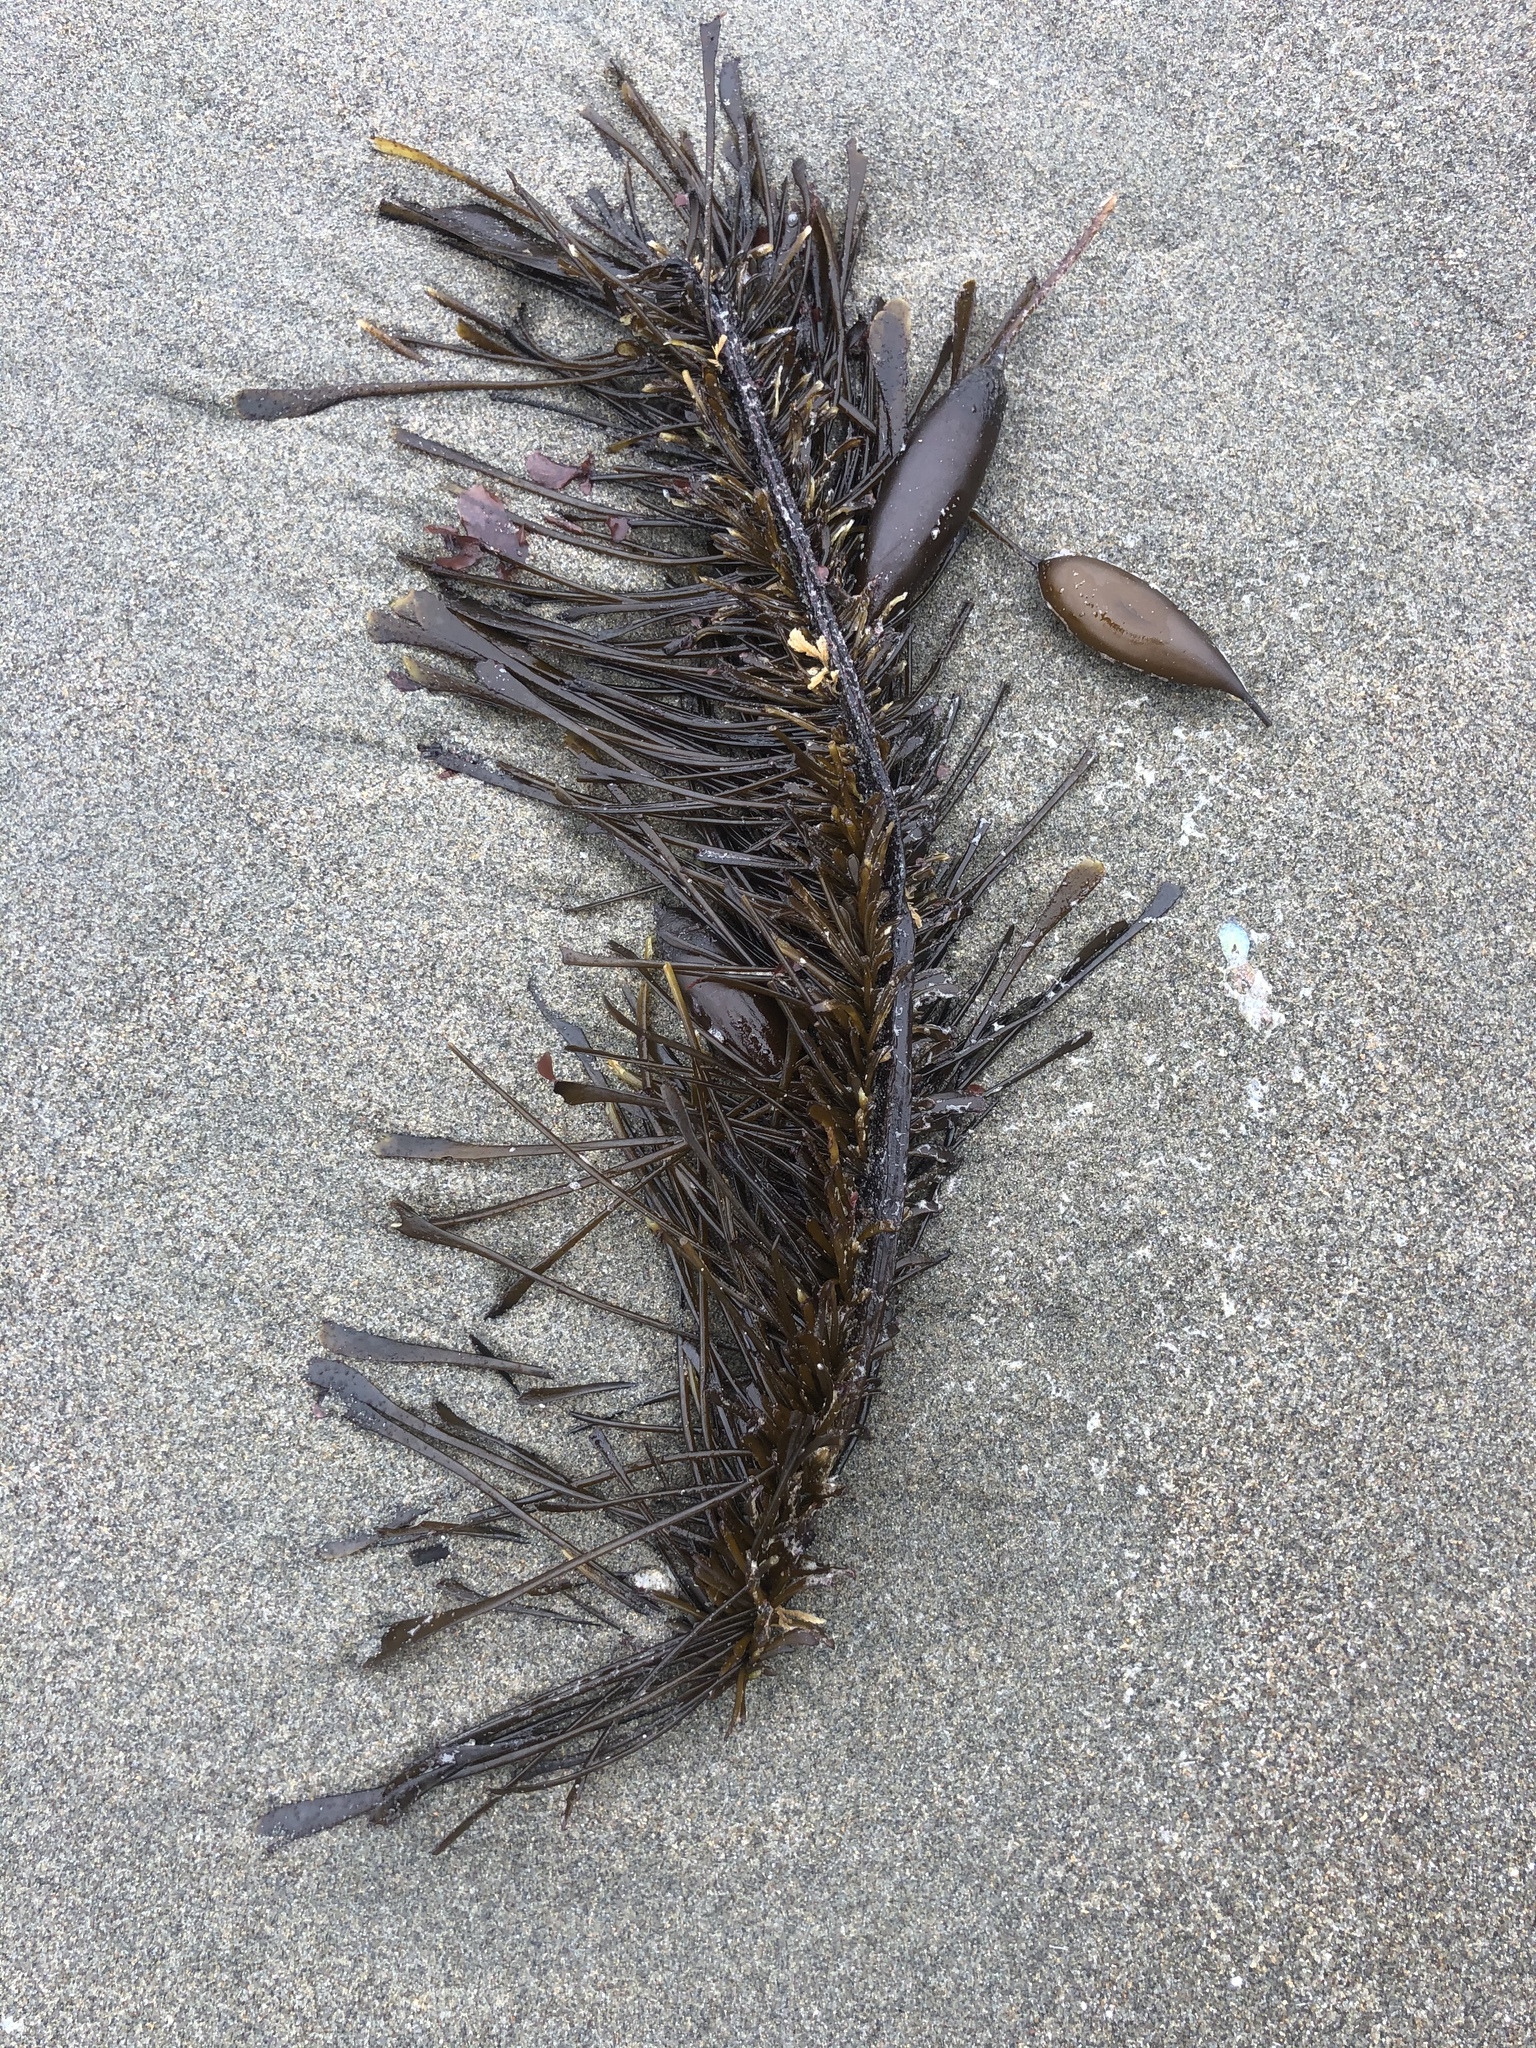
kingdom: Chromista
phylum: Ochrophyta
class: Phaeophyceae
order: Laminariales
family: Lessoniaceae
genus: Egregia
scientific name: Egregia menziesii
